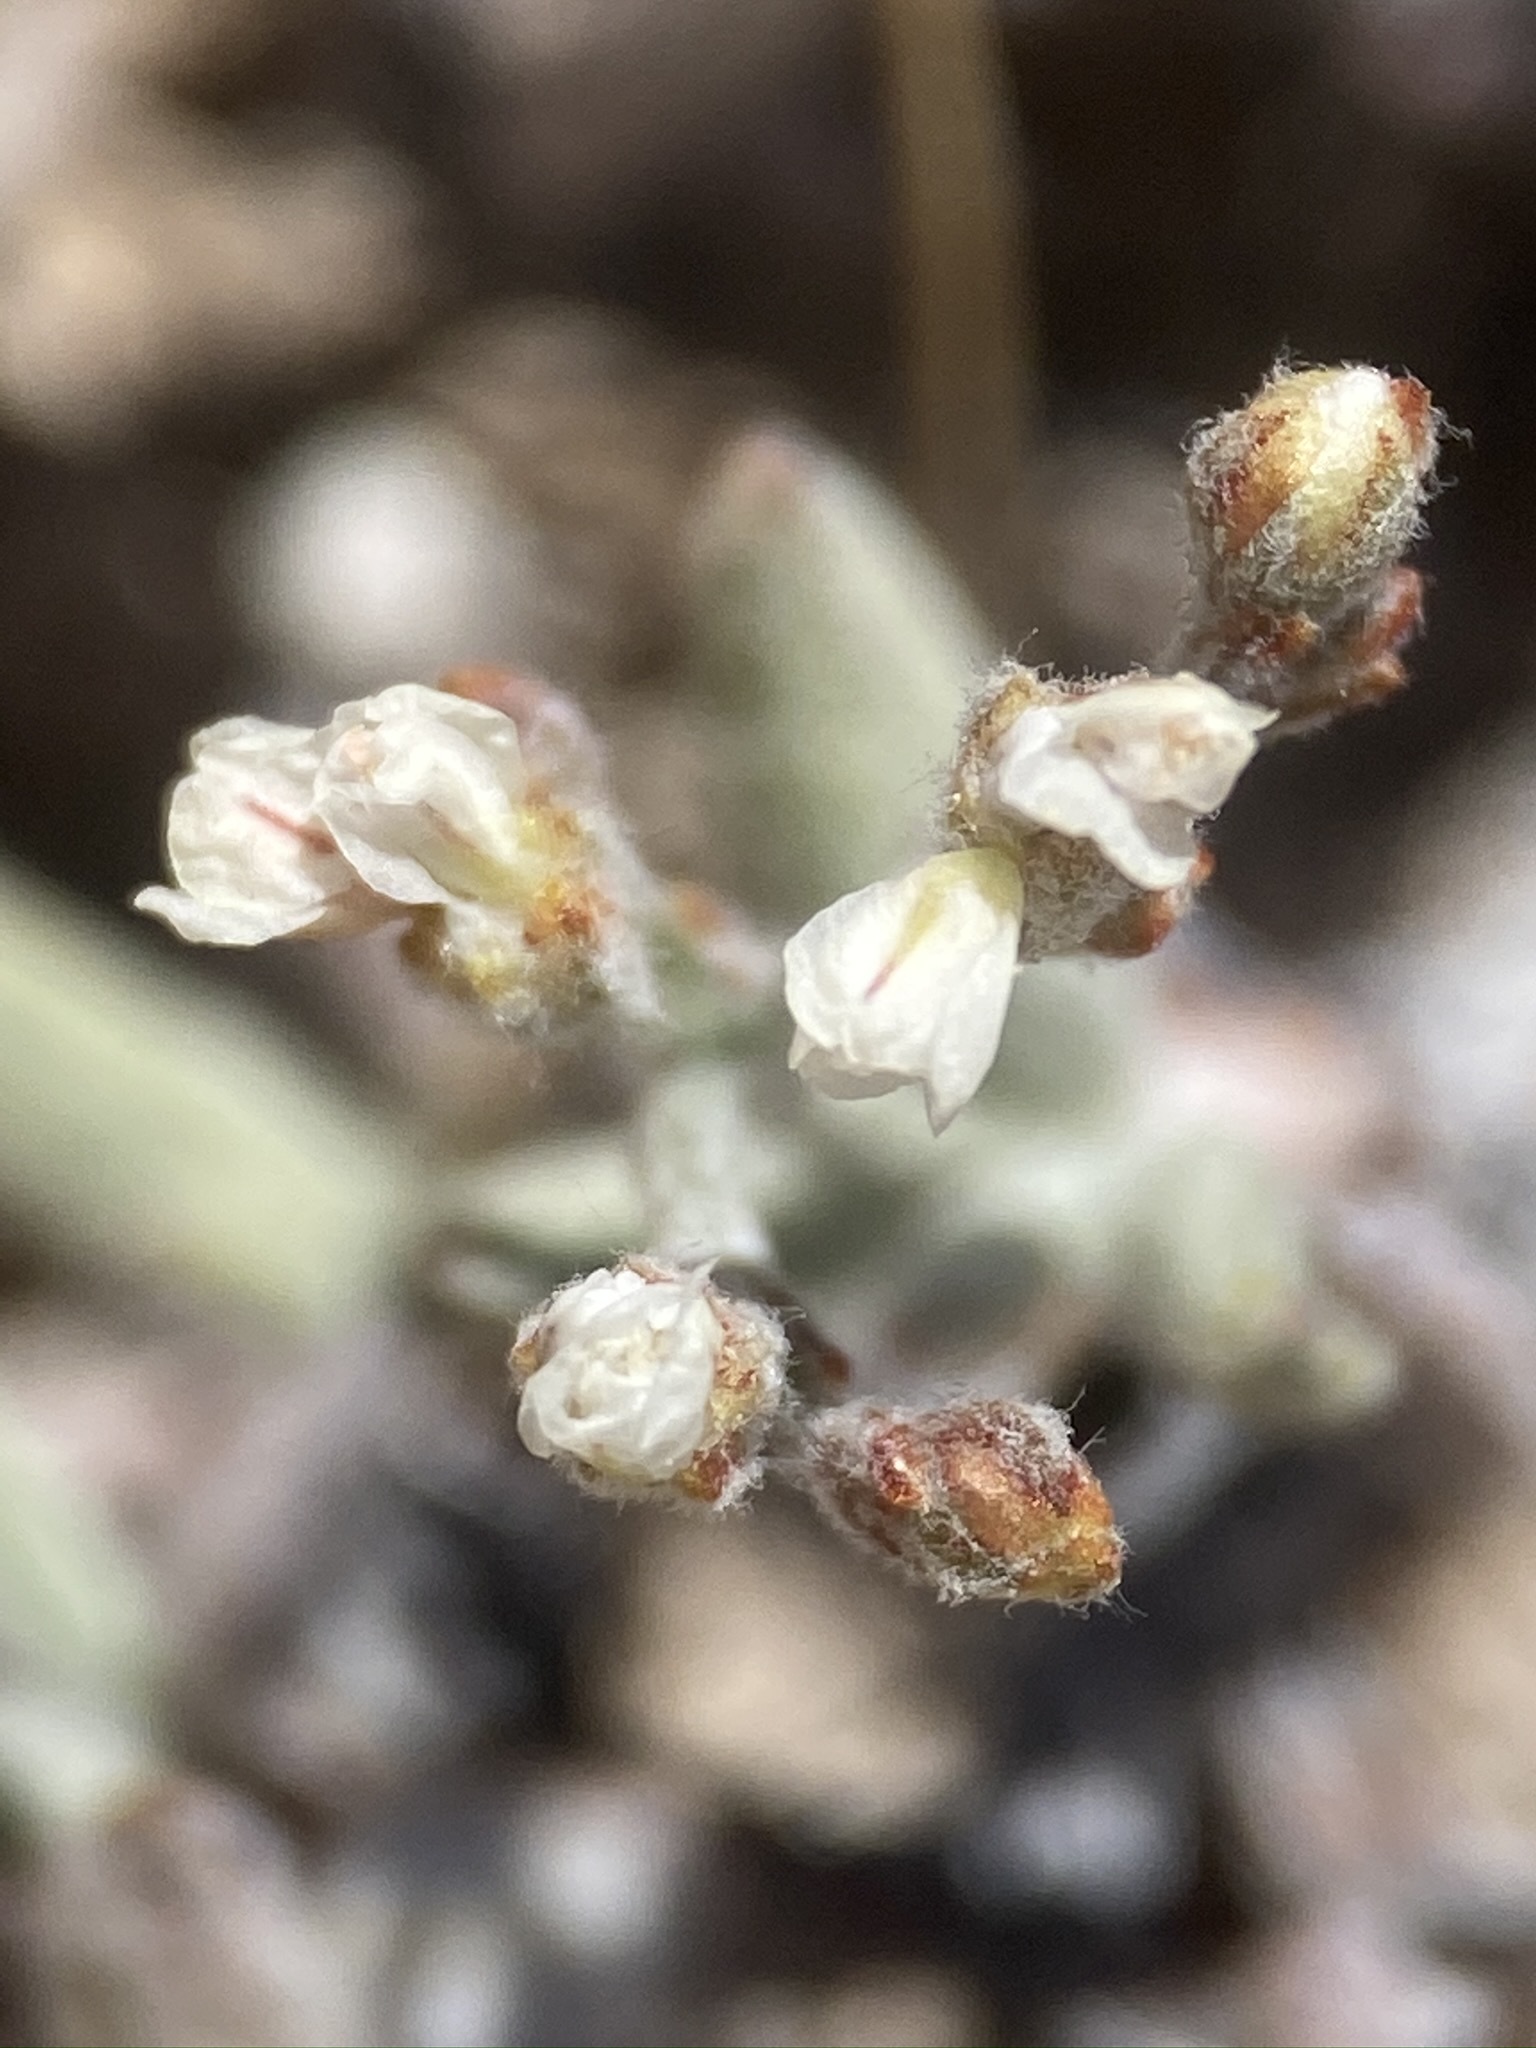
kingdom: Plantae
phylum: Tracheophyta
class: Magnoliopsida
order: Caryophyllales
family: Polygonaceae
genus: Eriogonum
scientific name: Eriogonum microtheca
